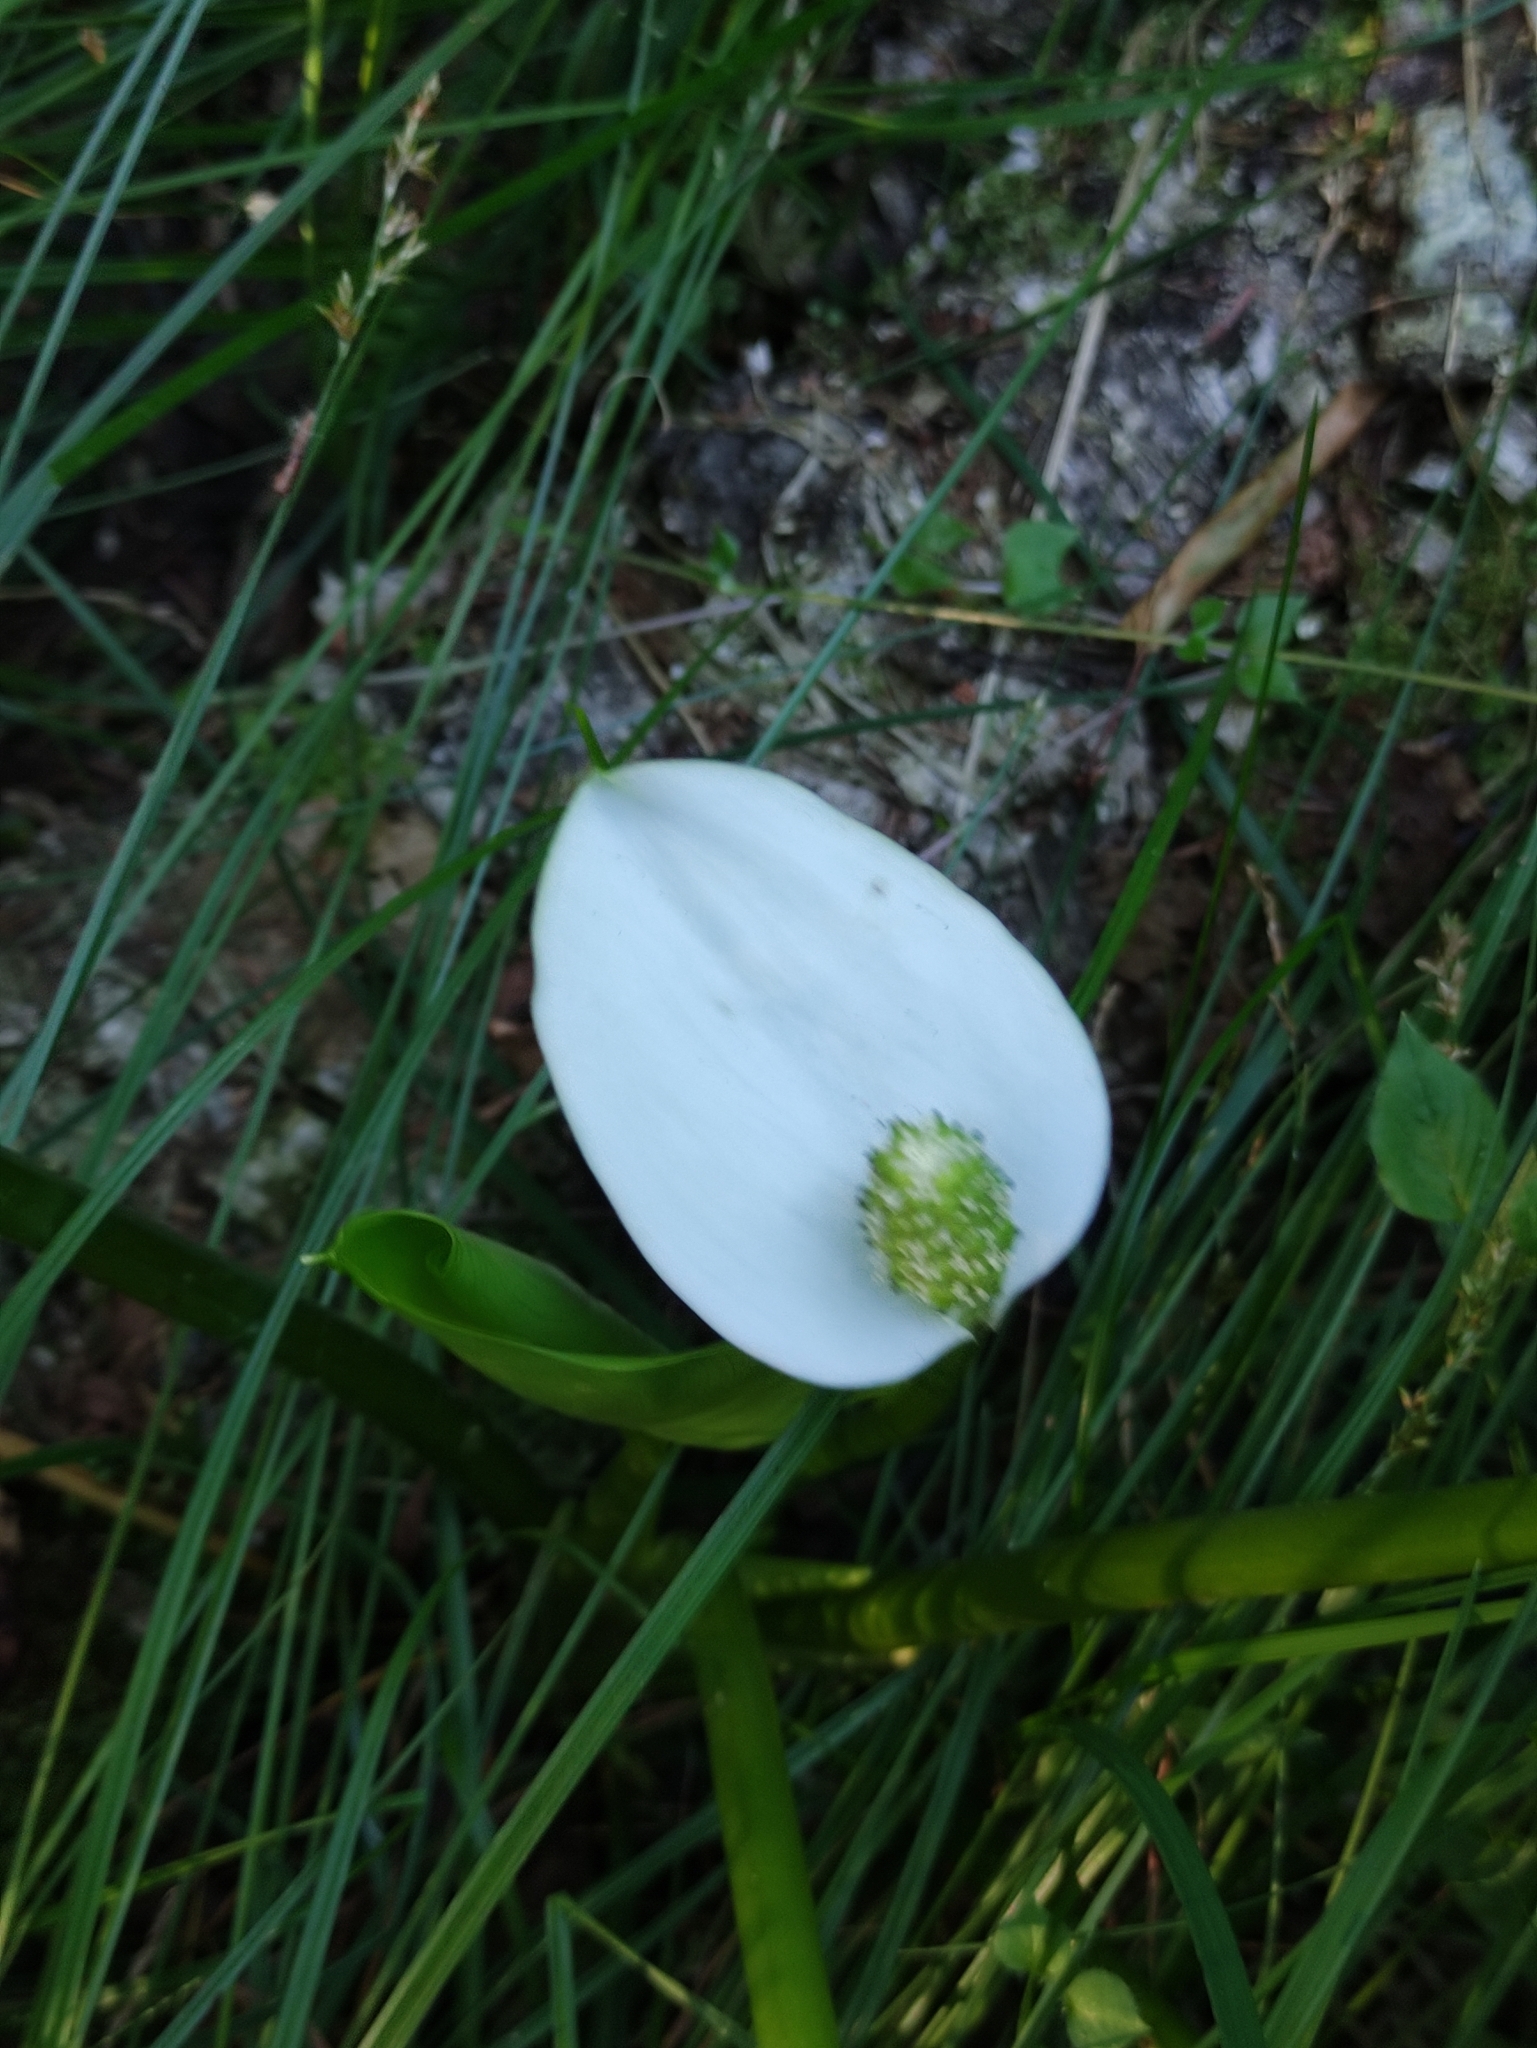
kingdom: Plantae
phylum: Tracheophyta
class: Liliopsida
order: Alismatales
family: Araceae
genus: Calla
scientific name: Calla palustris
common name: Bog arum
